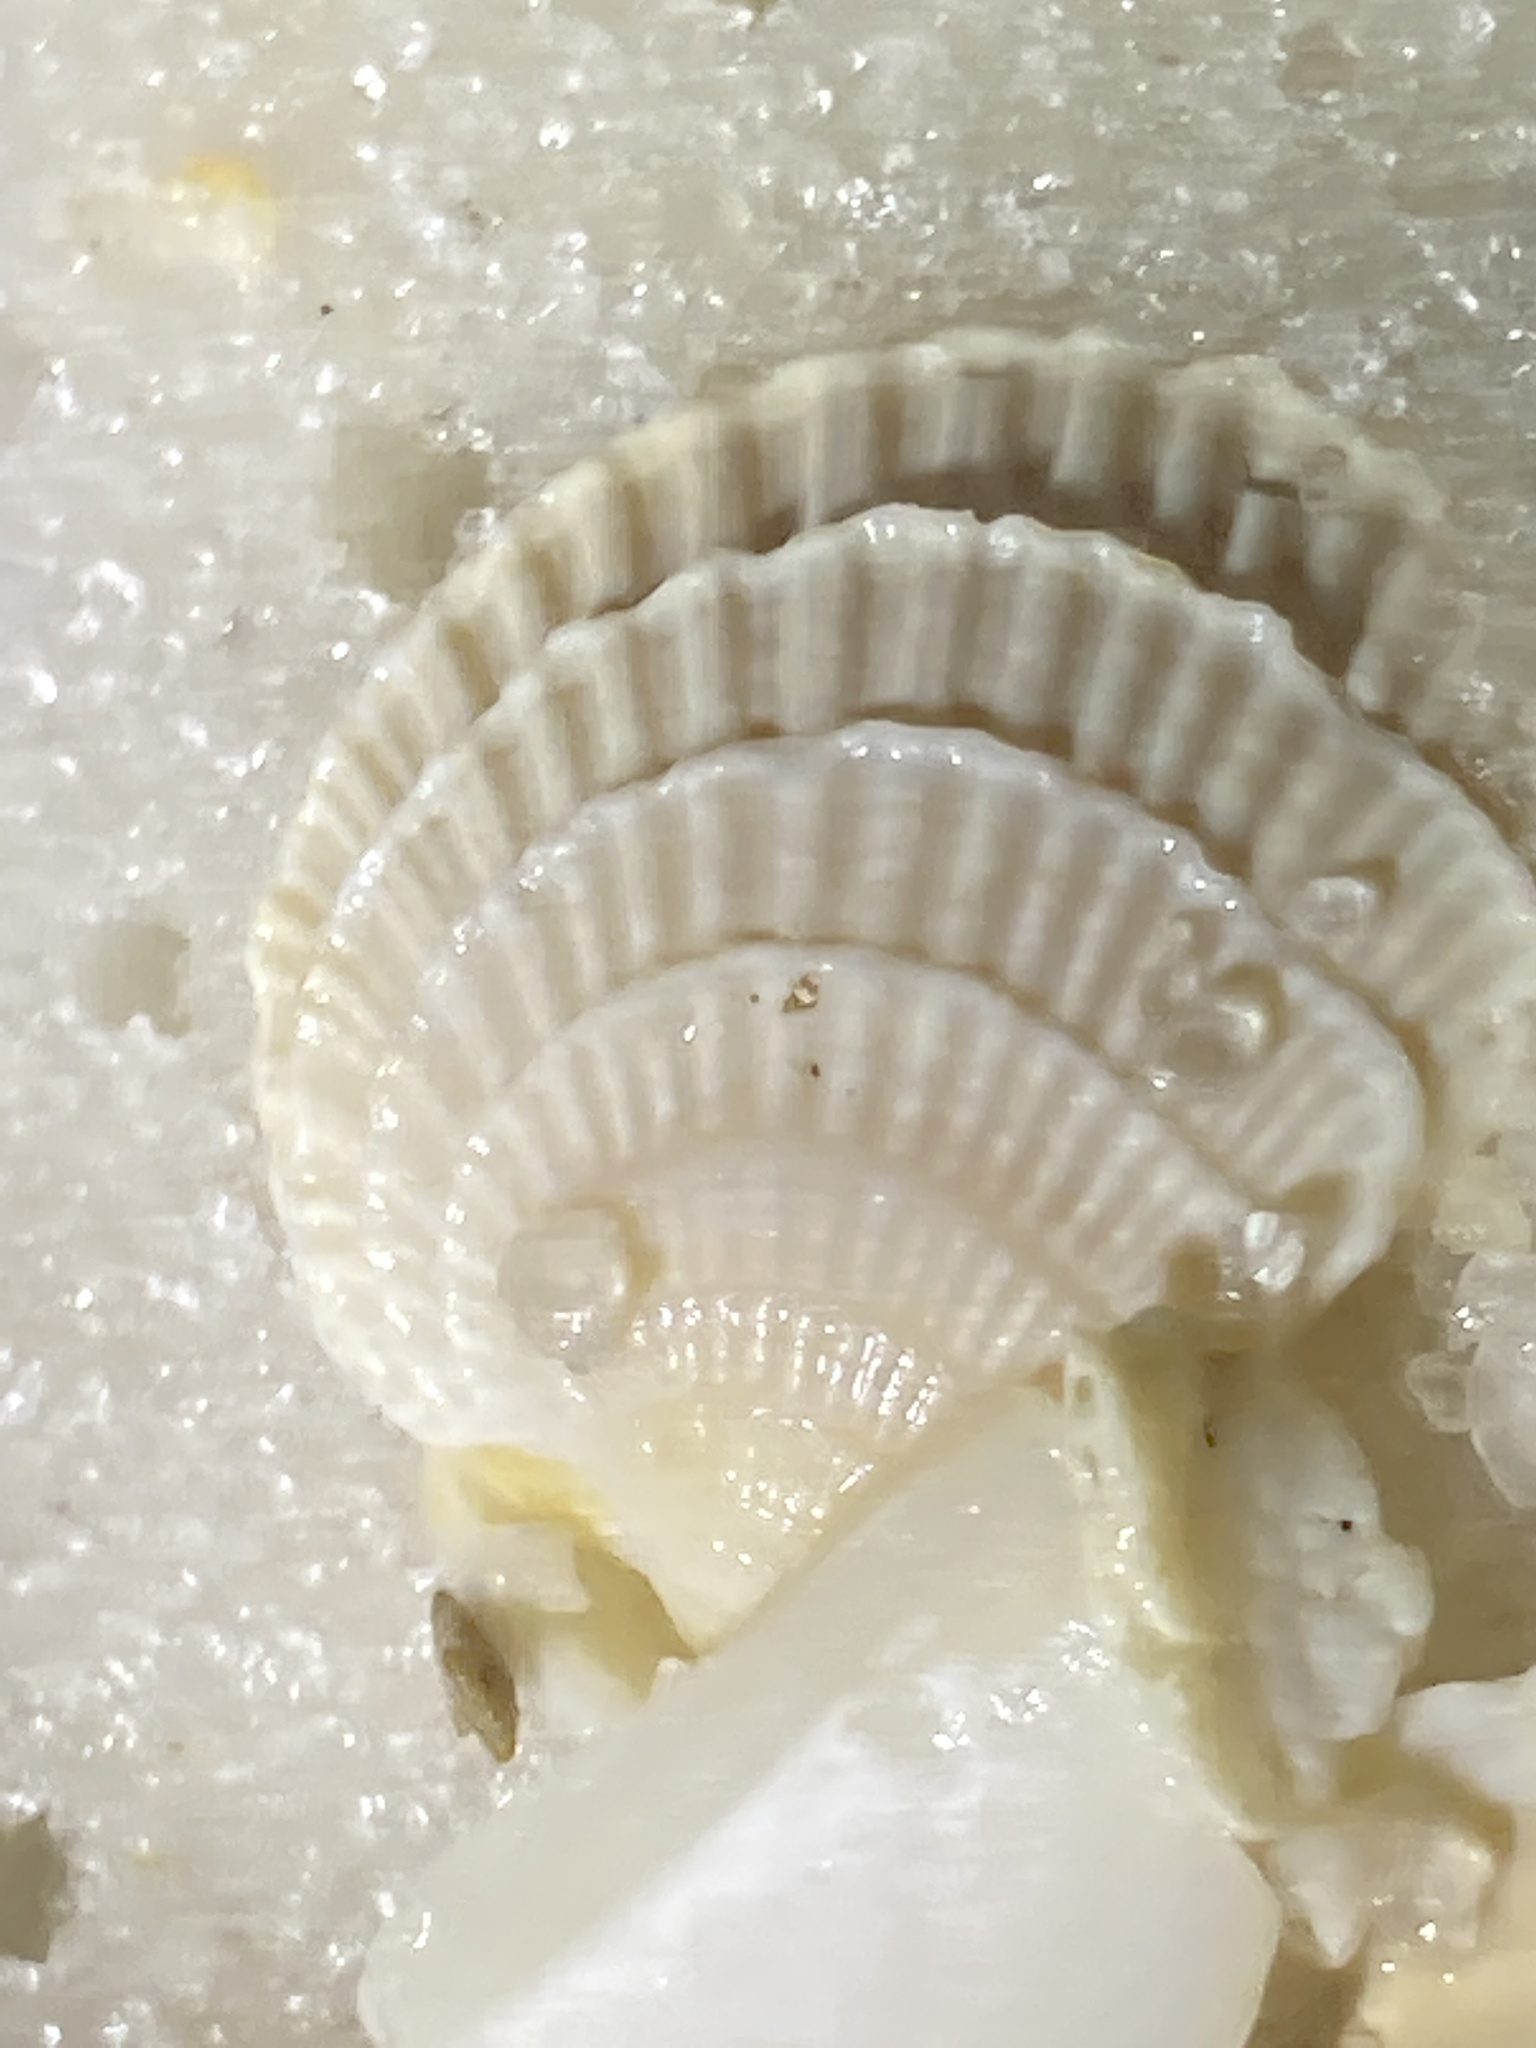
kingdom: Animalia
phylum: Mollusca
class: Bivalvia
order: Venerida
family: Veneridae
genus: Chione
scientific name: Chione elevata
